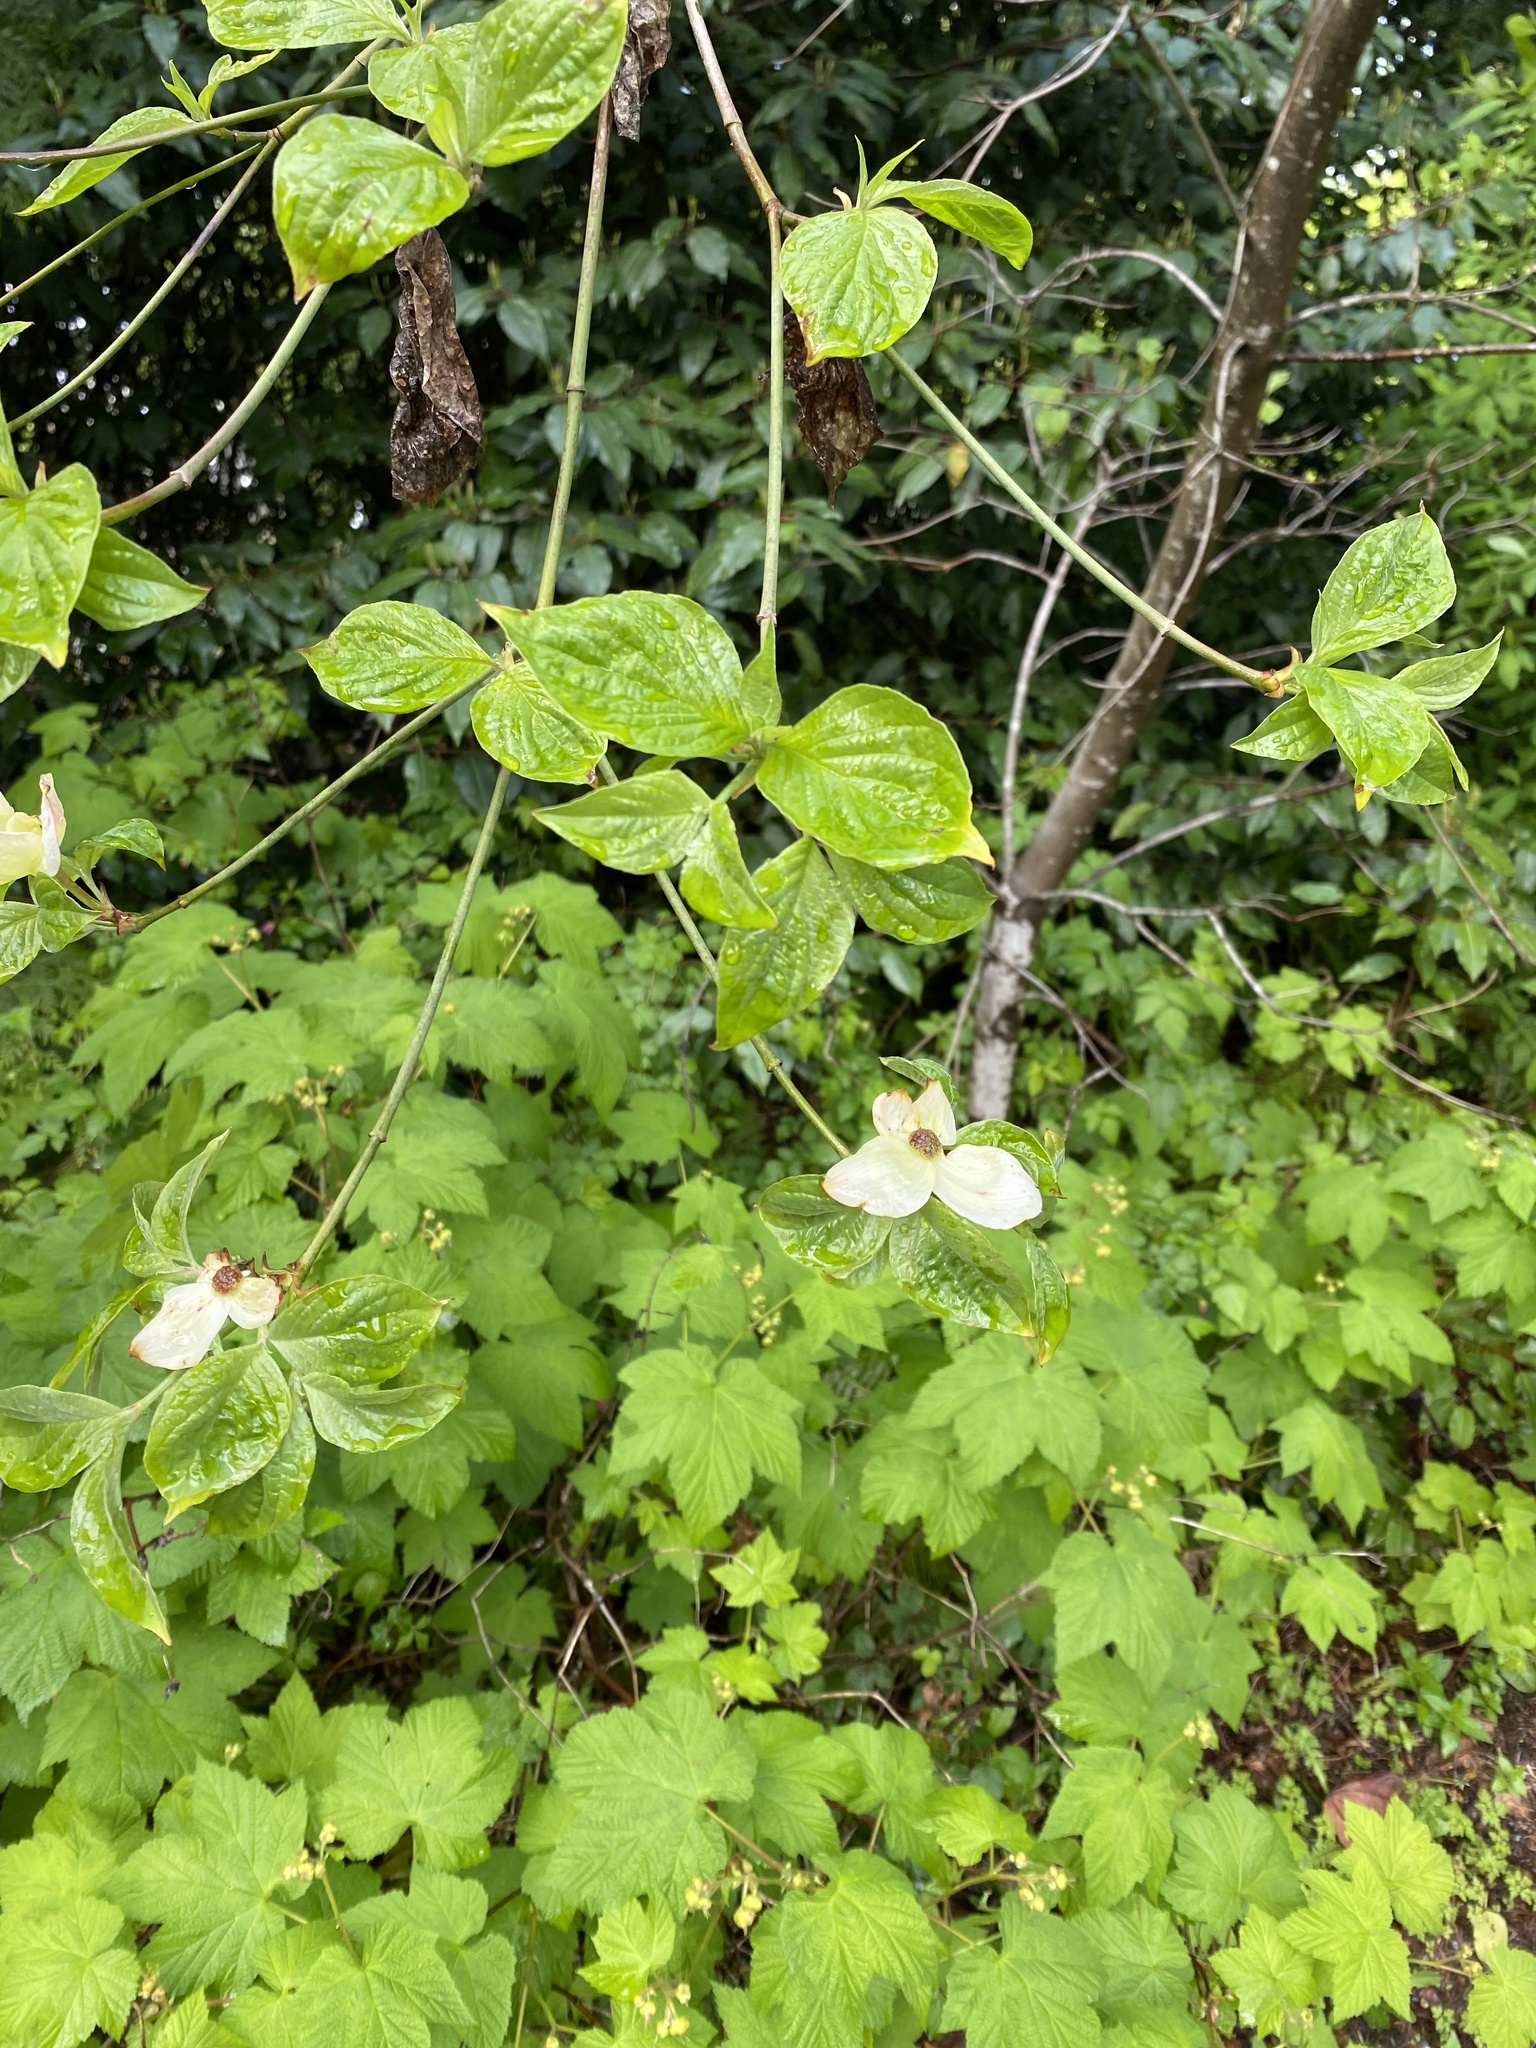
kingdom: Plantae
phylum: Tracheophyta
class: Magnoliopsida
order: Cornales
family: Cornaceae
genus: Cornus
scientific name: Cornus nuttallii
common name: Pacific dogwood
